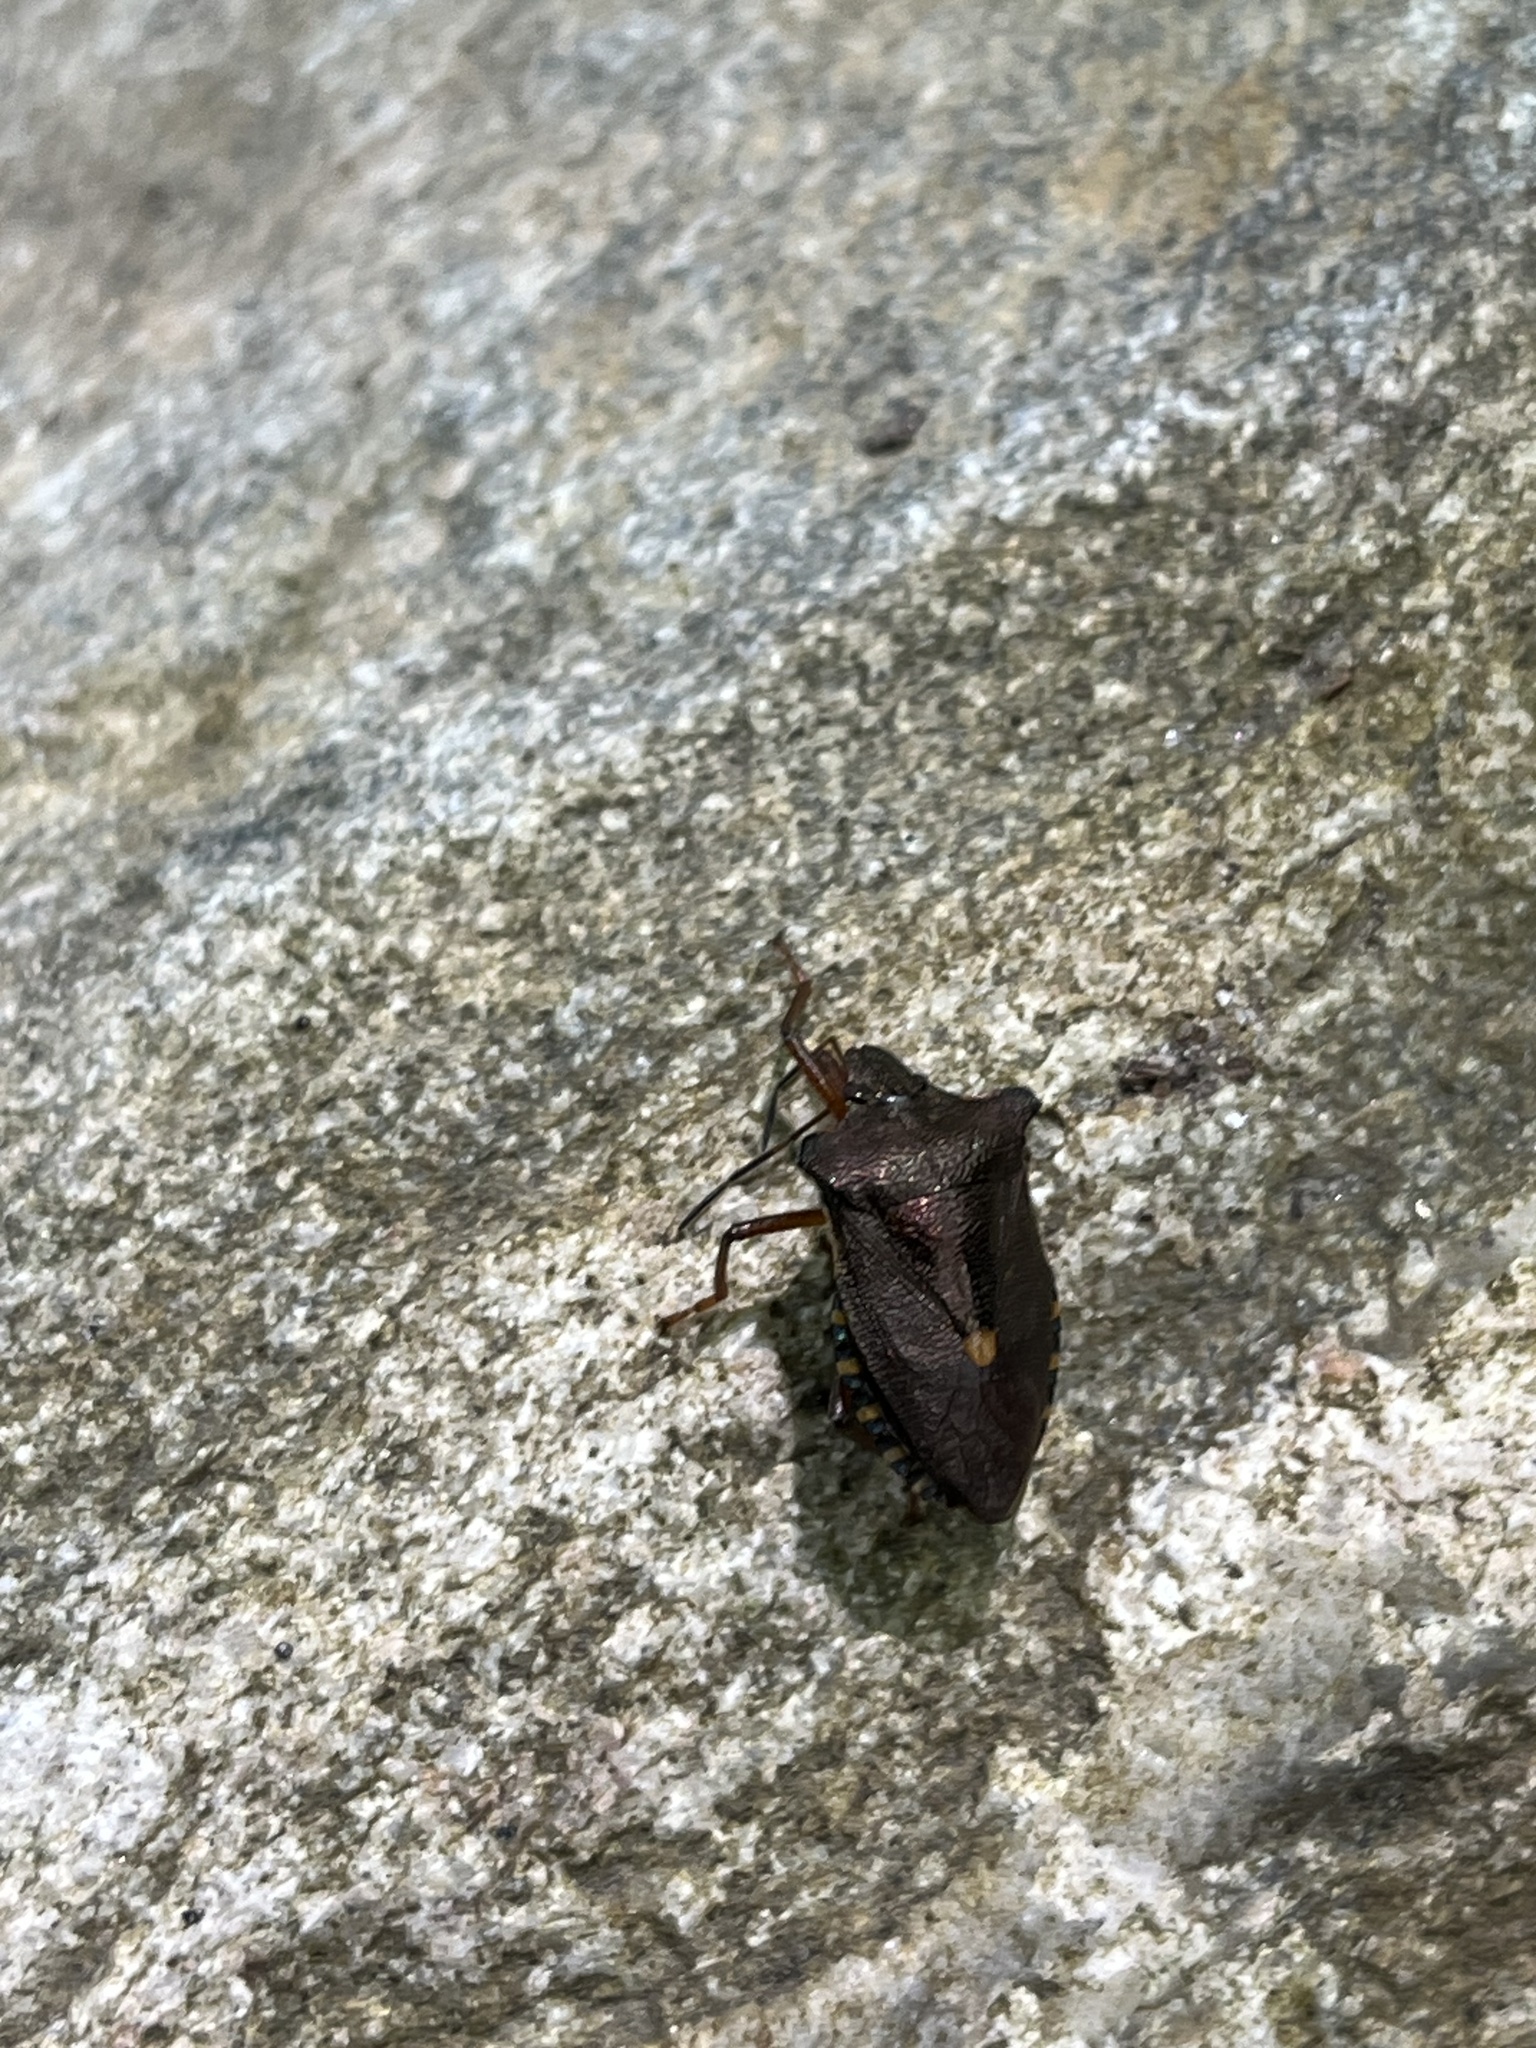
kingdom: Animalia
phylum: Arthropoda
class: Insecta
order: Hemiptera
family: Pentatomidae
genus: Pentatoma
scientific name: Pentatoma rufipes
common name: Forest bug
